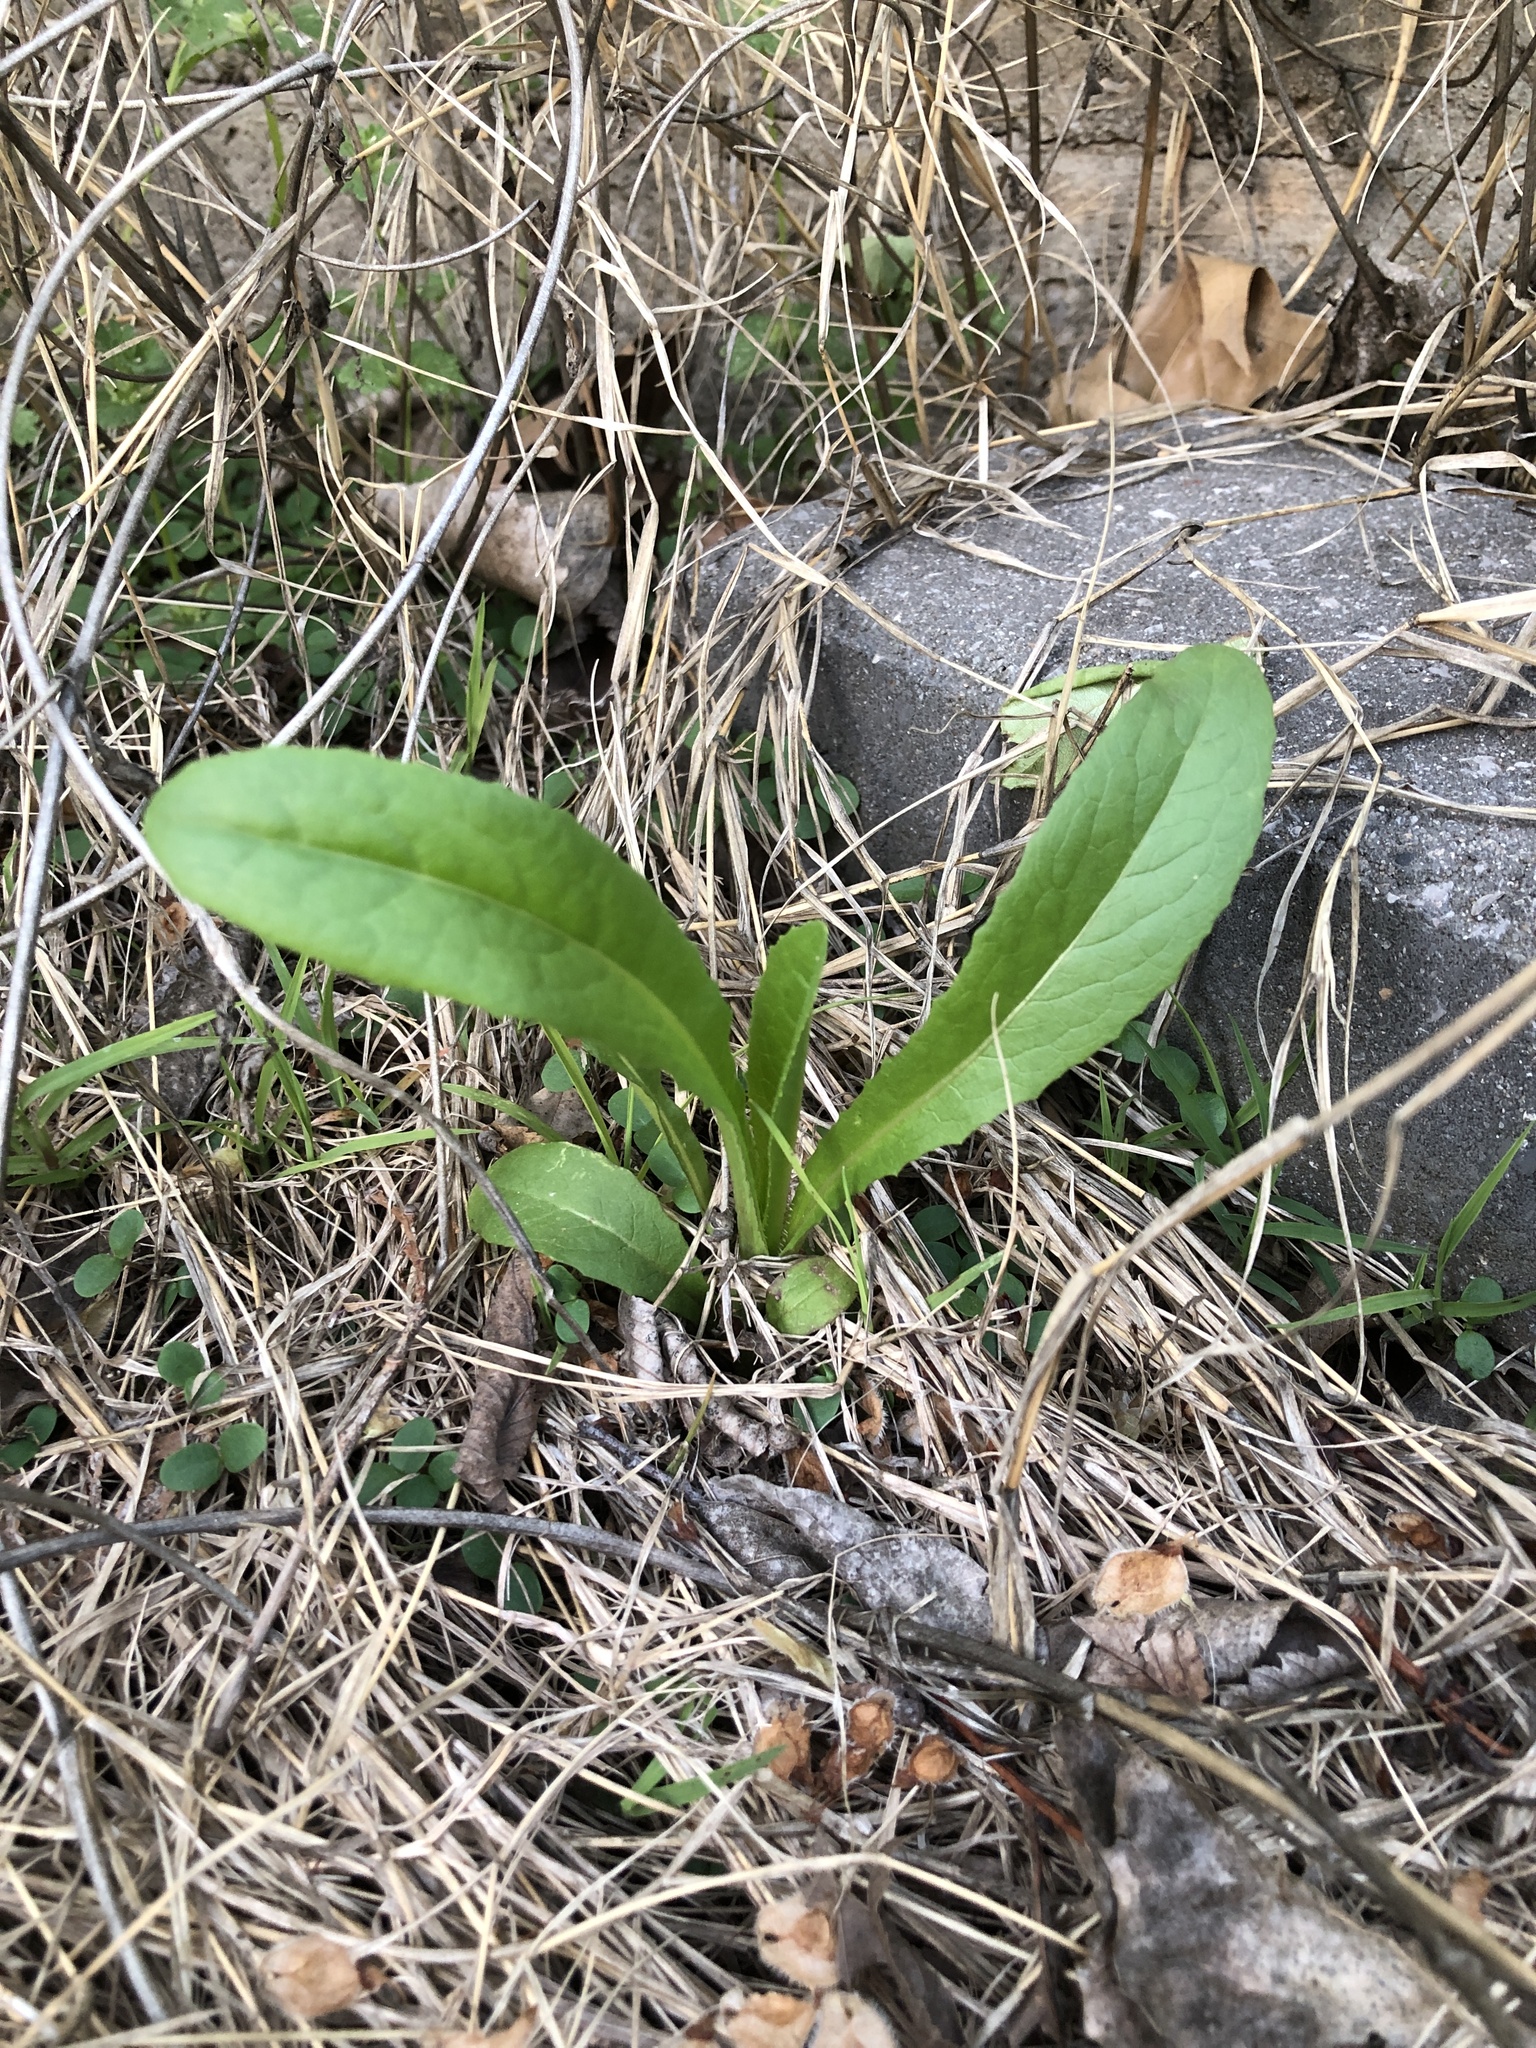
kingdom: Plantae
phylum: Tracheophyta
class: Magnoliopsida
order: Asterales
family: Asteraceae
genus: Lactuca
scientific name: Lactuca serriola
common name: Prickly lettuce
